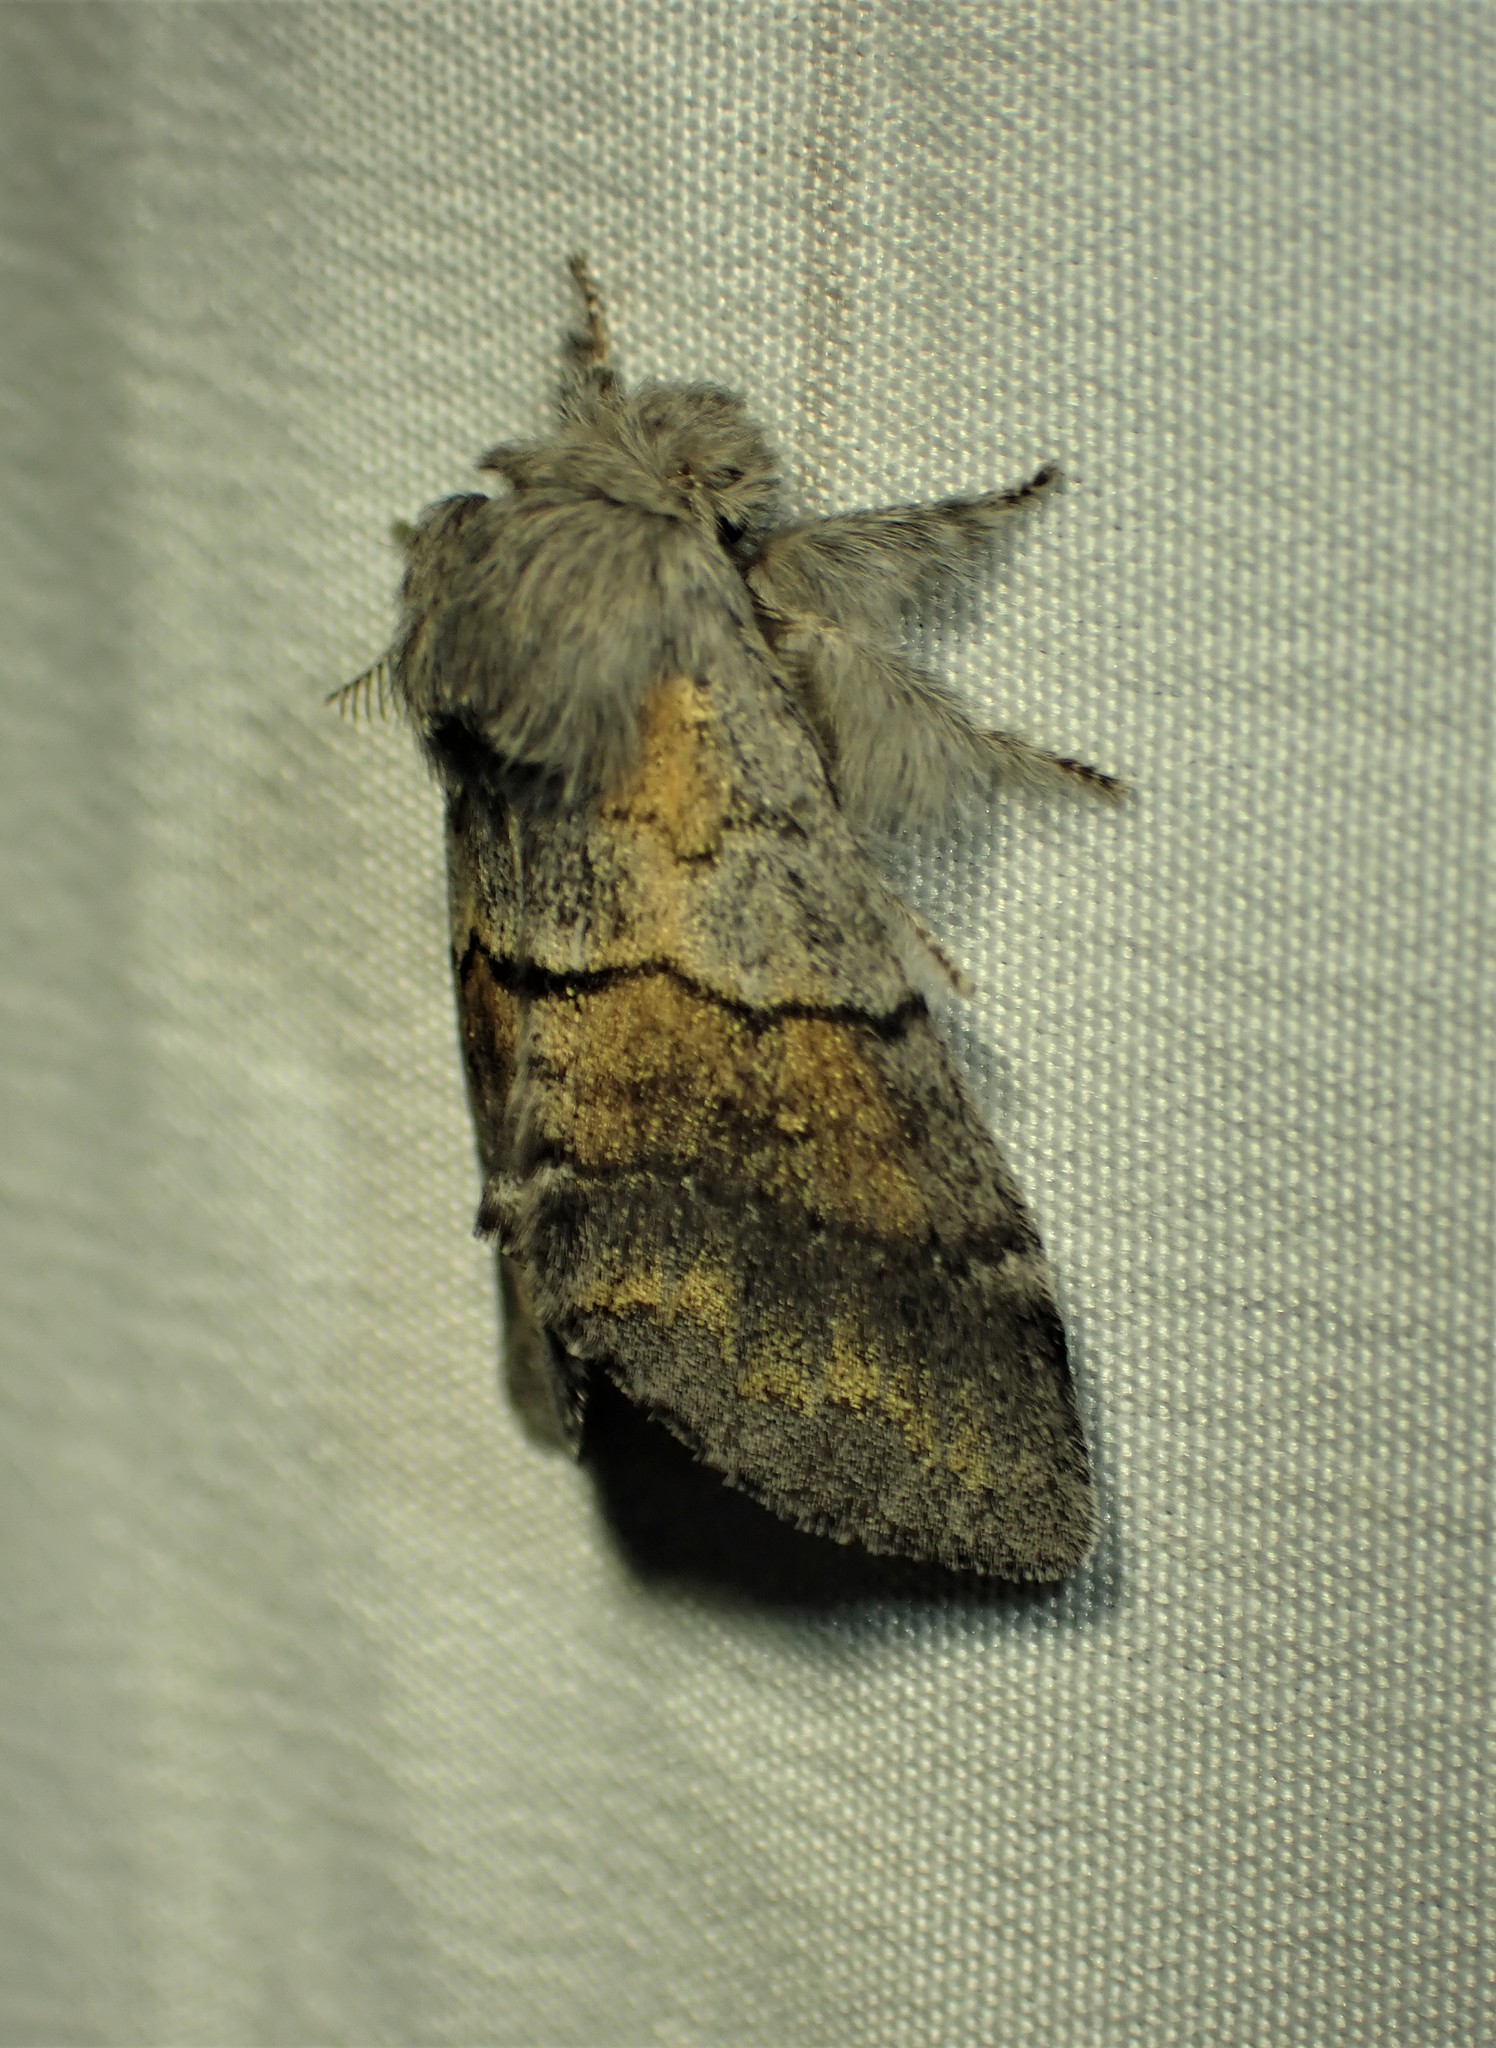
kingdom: Animalia
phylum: Arthropoda
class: Insecta
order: Lepidoptera
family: Notodontidae
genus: Gluphisia
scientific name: Gluphisia lintneri
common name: Lintner's gluphisia moth
